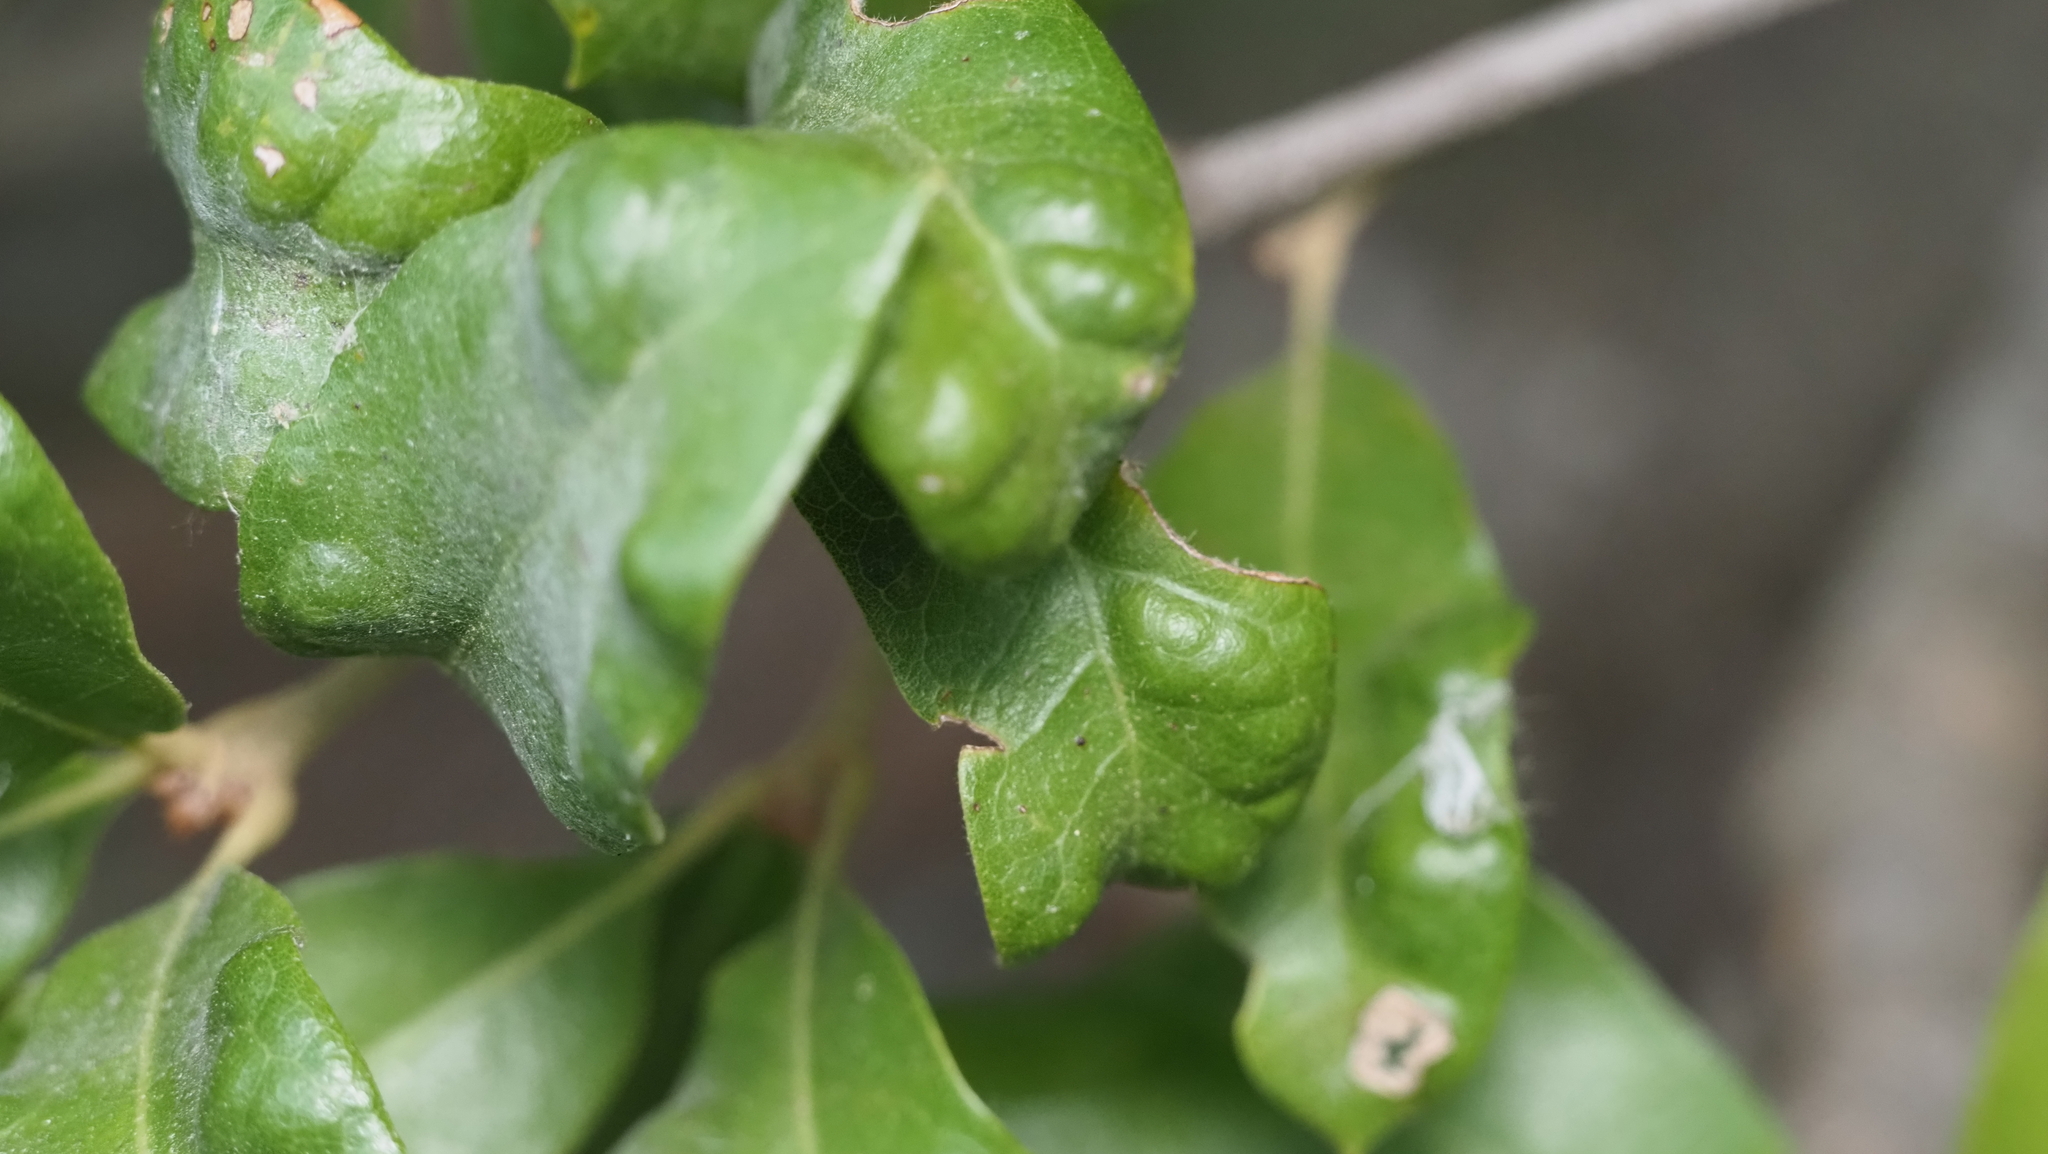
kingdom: Animalia
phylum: Arthropoda
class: Arachnida
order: Trombidiformes
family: Eriophyidae
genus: Aceria
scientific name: Aceria quercina
